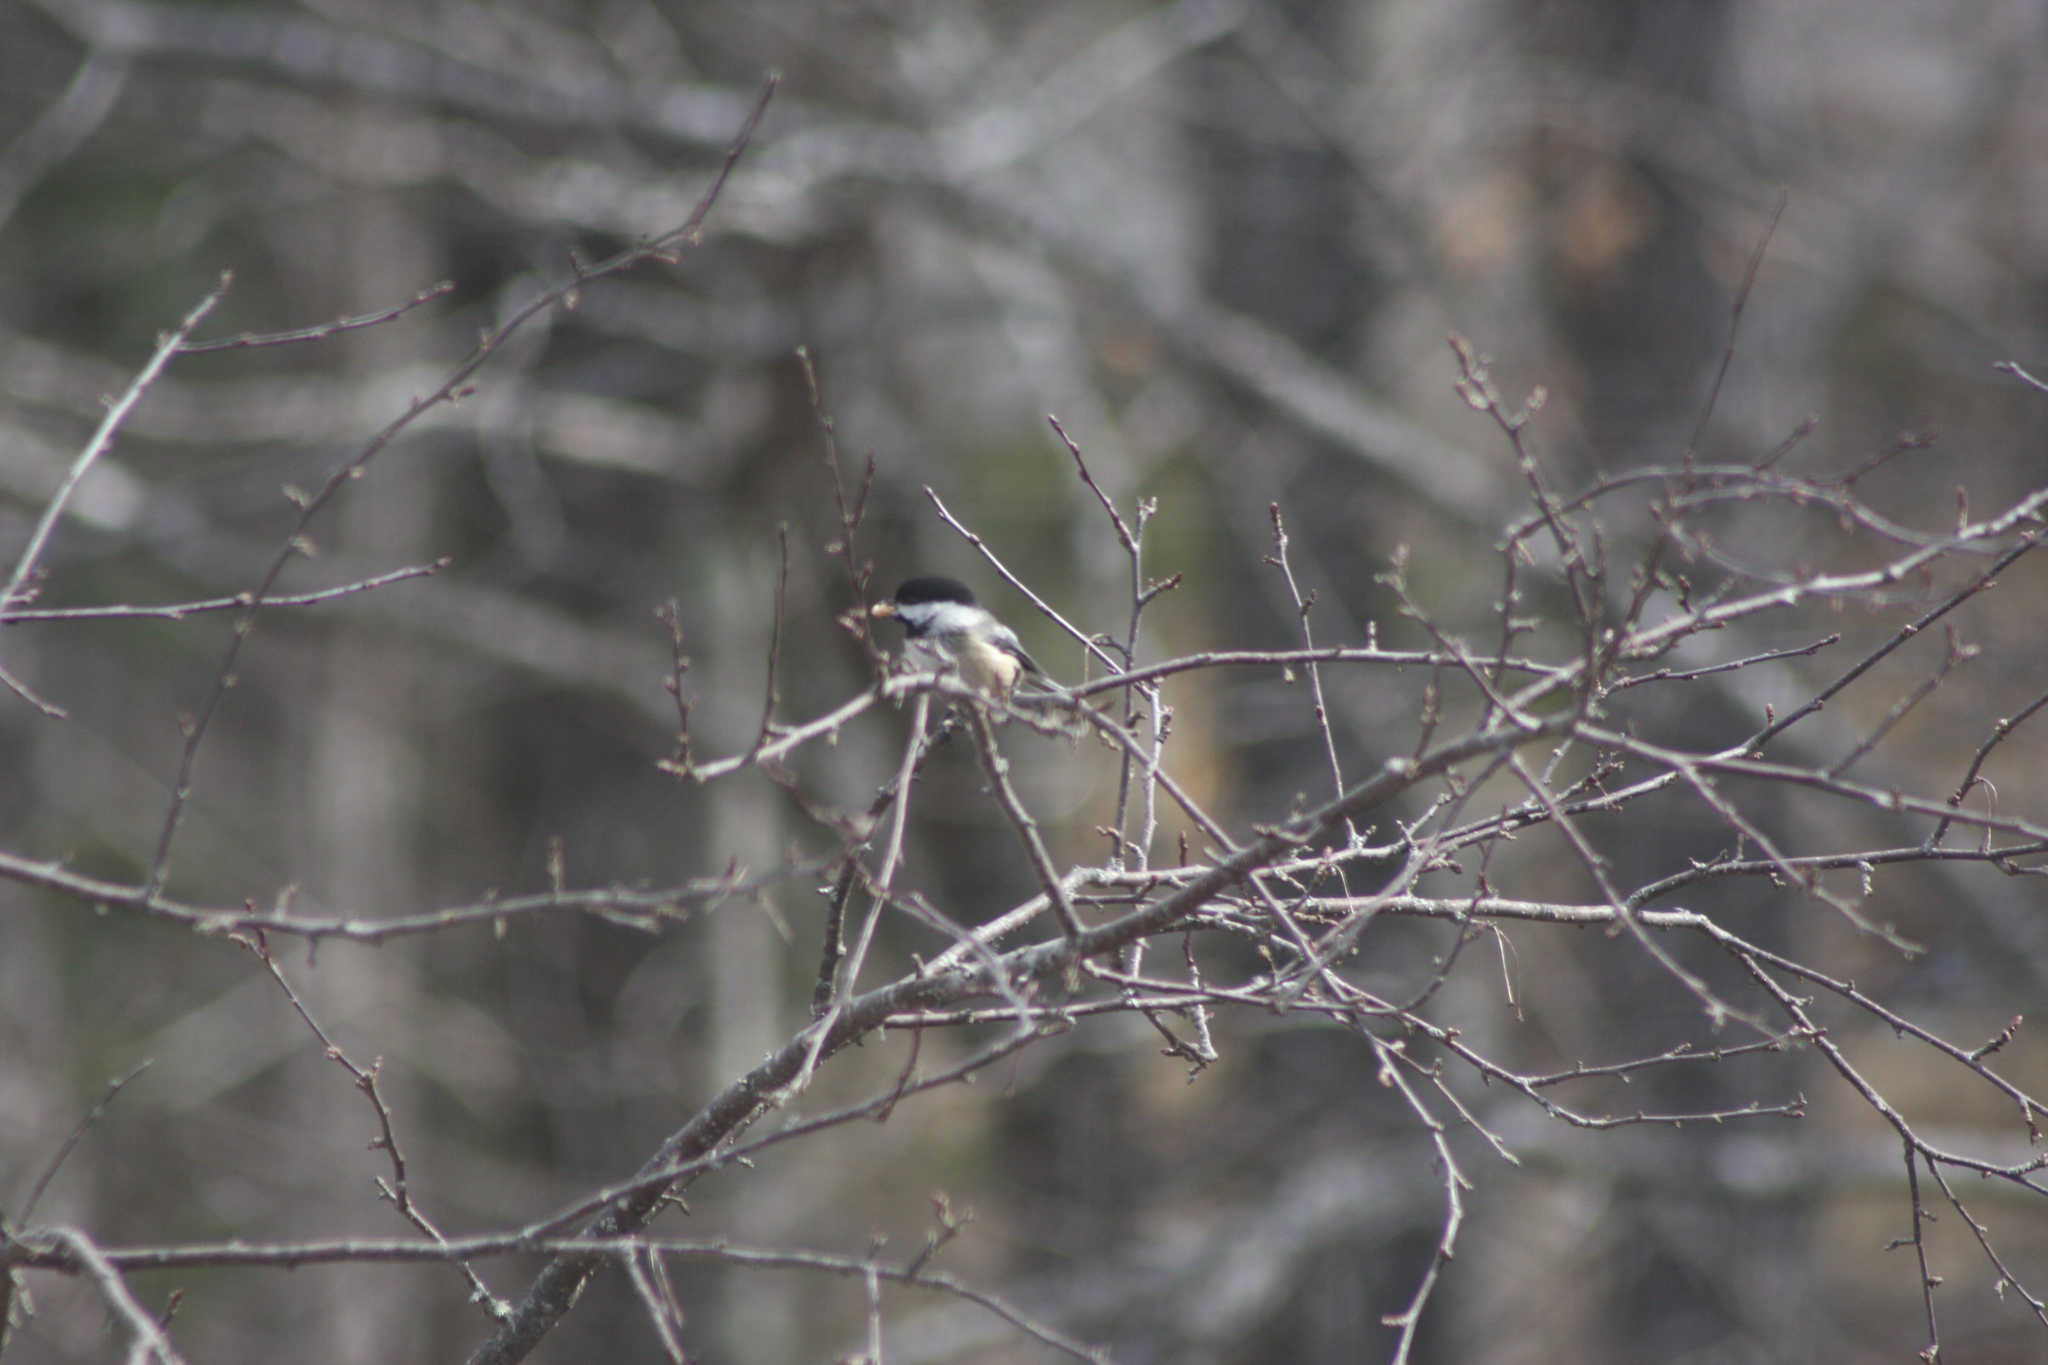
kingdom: Animalia
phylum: Chordata
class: Aves
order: Passeriformes
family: Paridae
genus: Poecile
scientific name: Poecile atricapillus
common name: Black-capped chickadee
